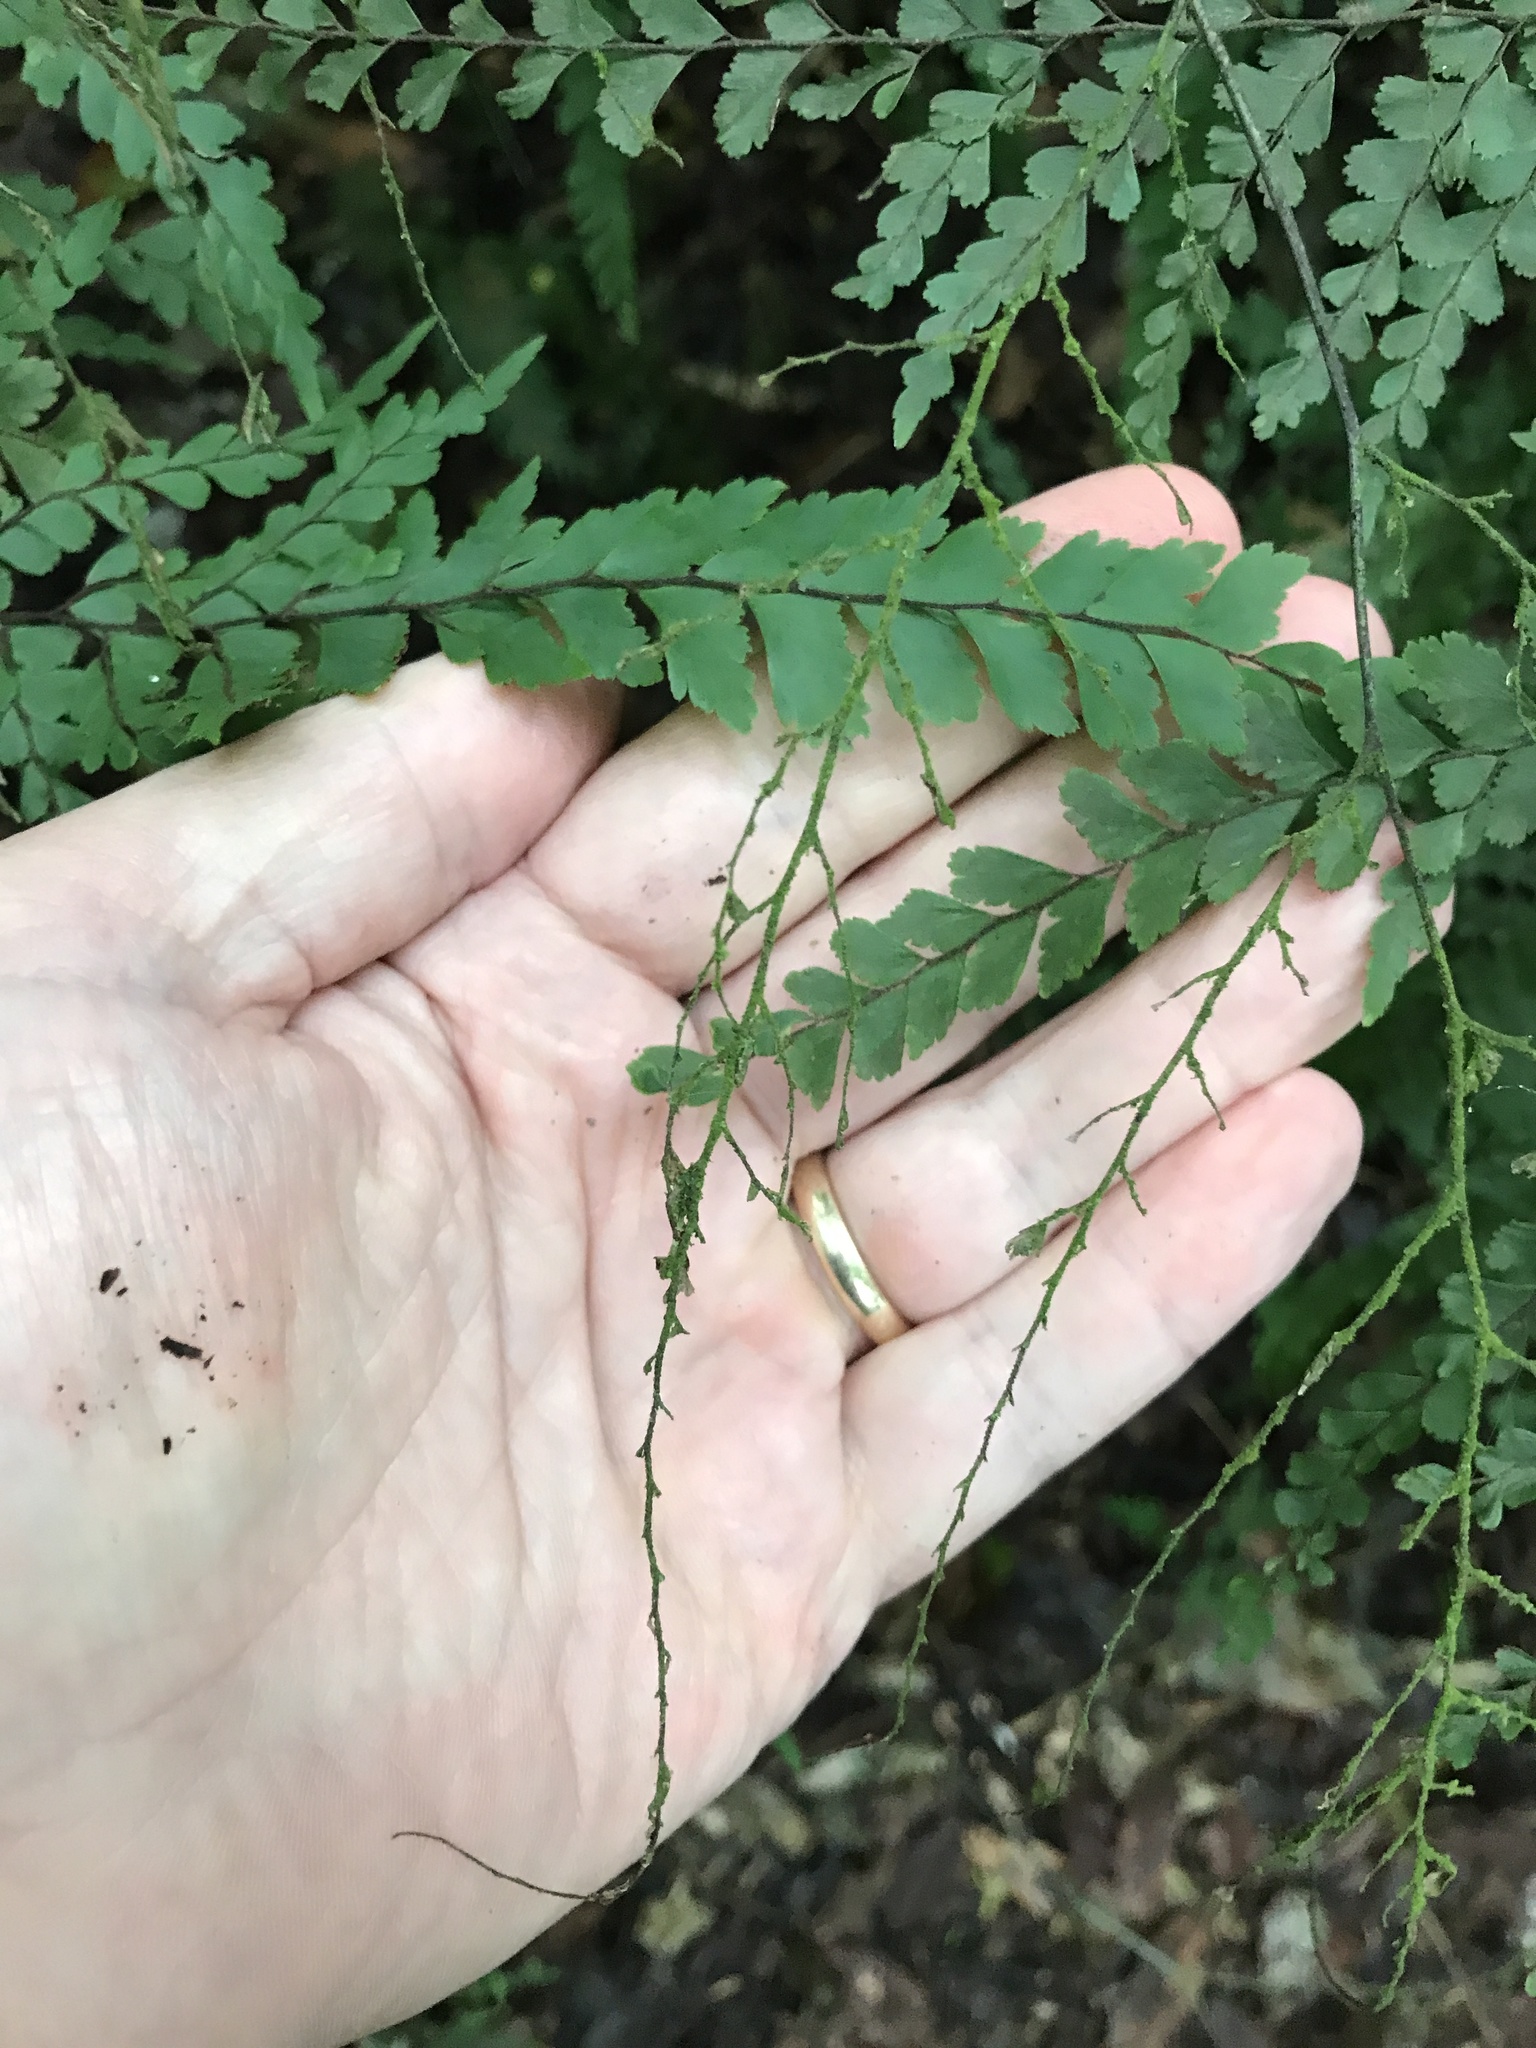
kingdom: Plantae
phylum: Tracheophyta
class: Polypodiopsida
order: Polypodiales
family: Pteridaceae
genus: Adiantum
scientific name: Adiantum formosum
